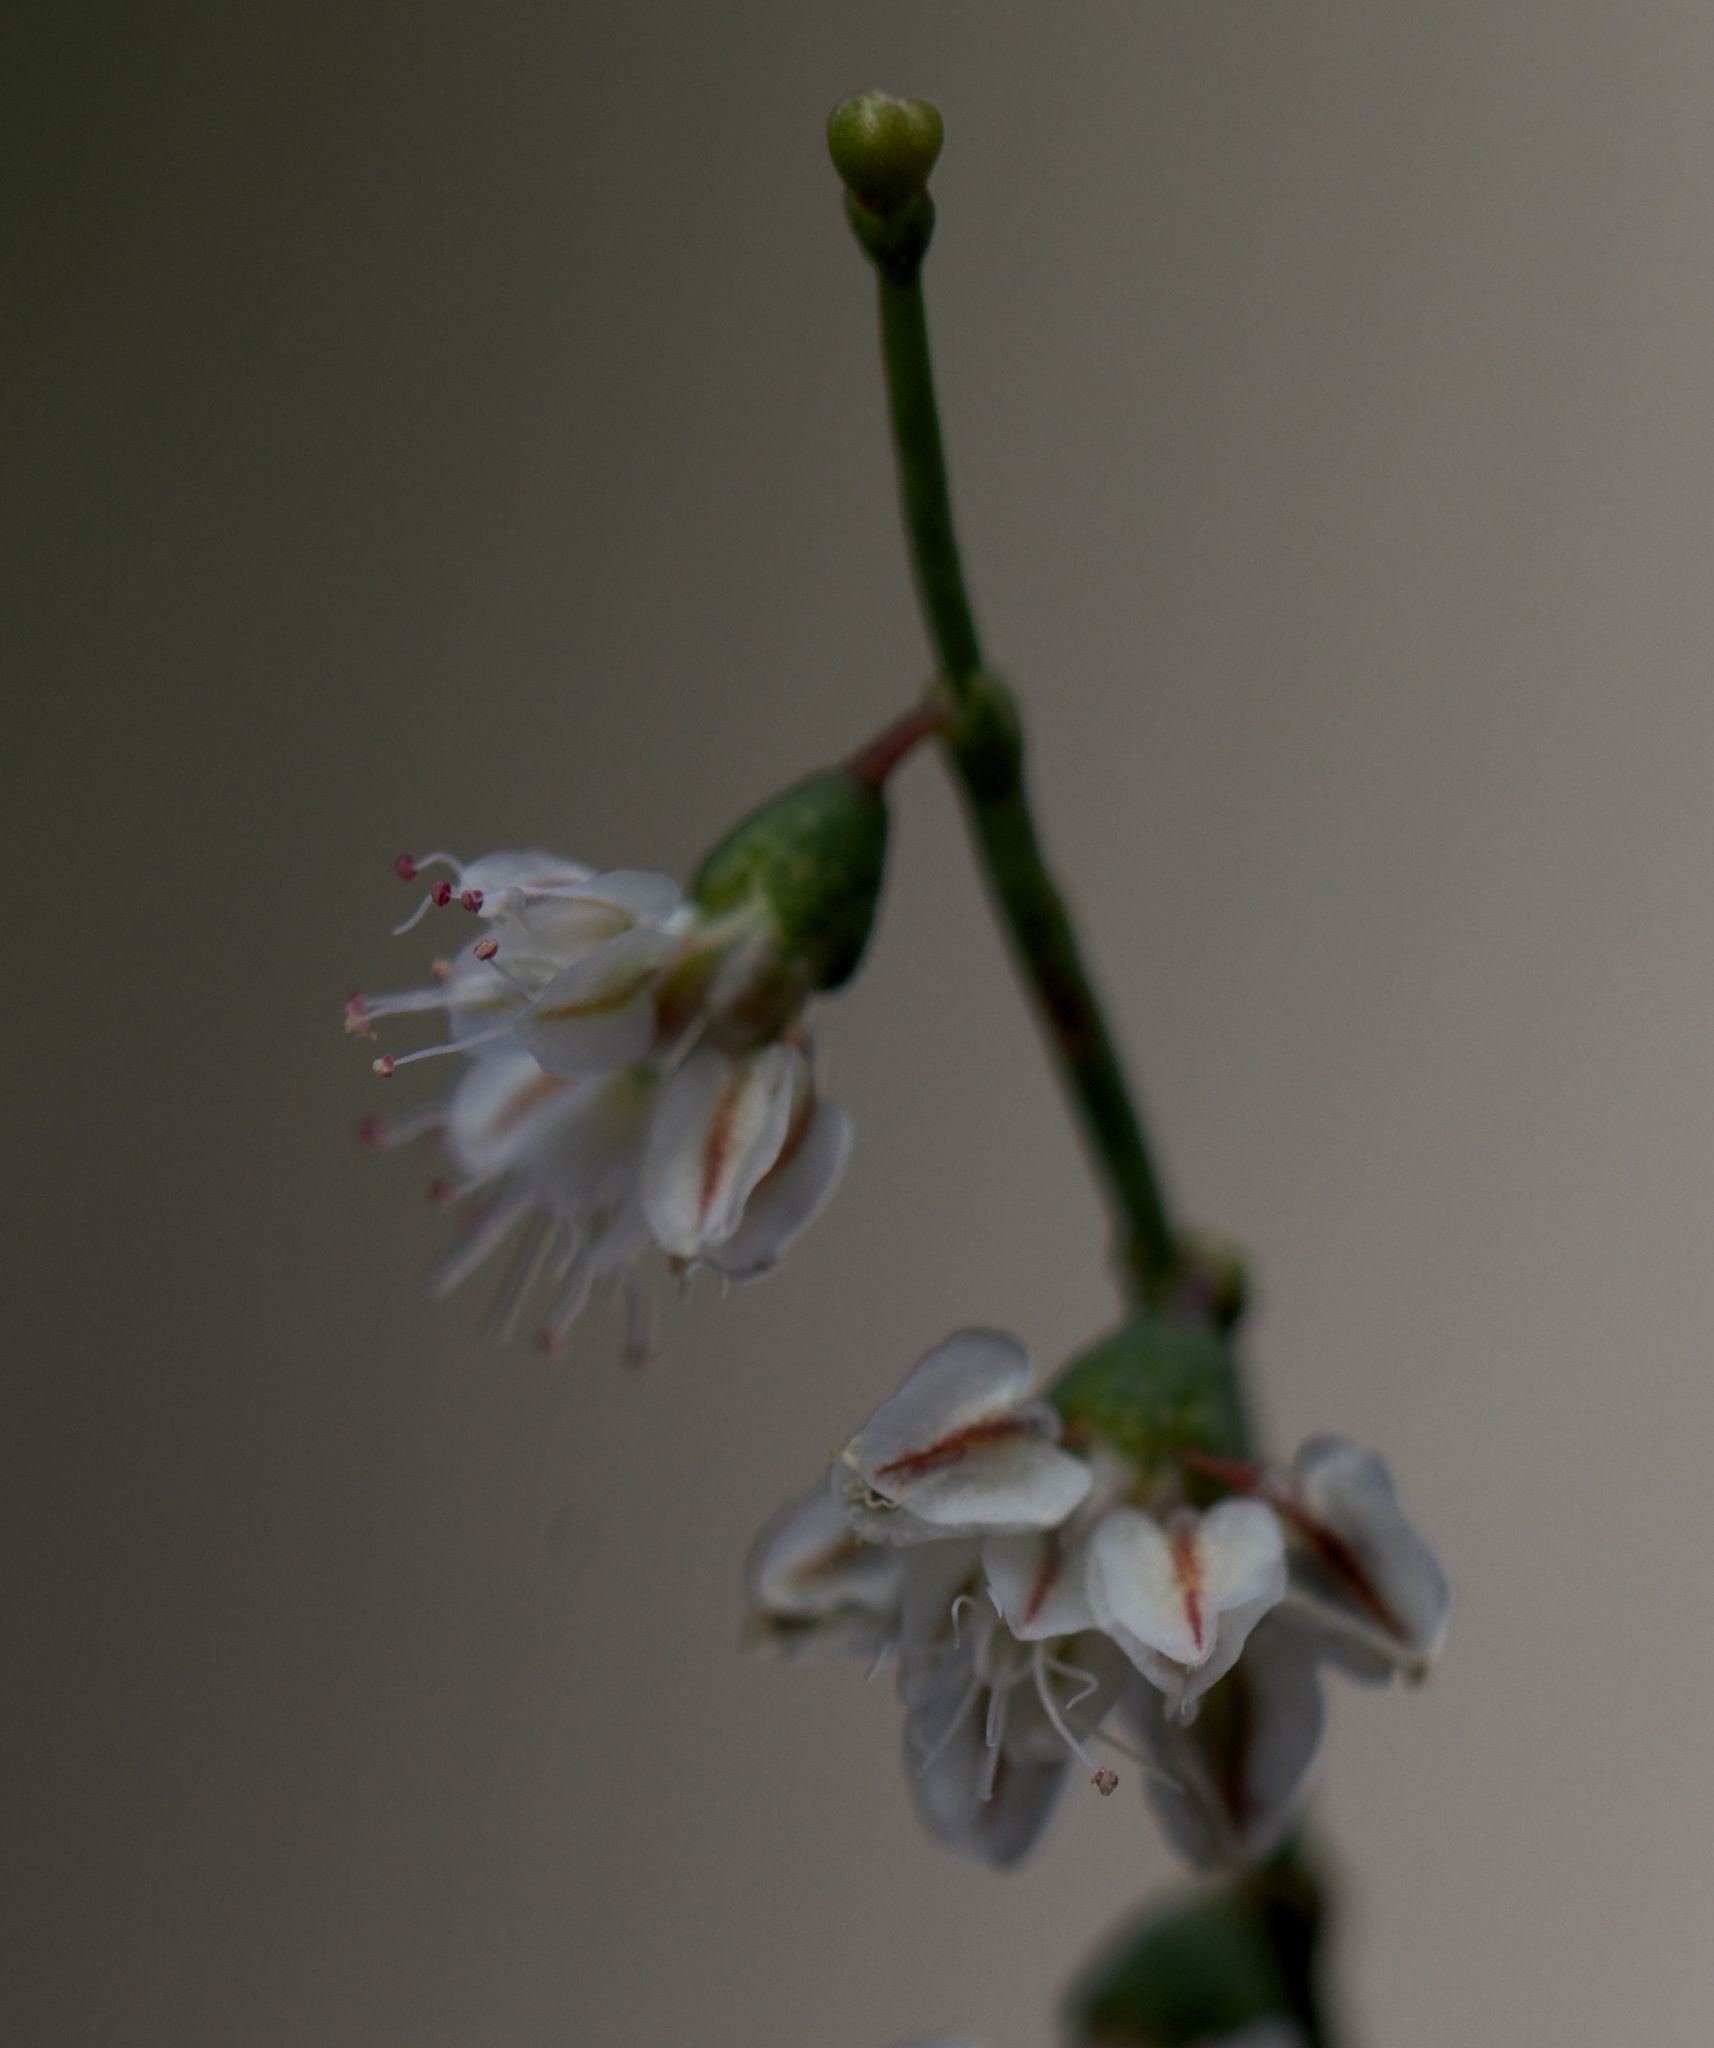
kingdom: Plantae
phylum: Tracheophyta
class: Magnoliopsida
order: Caryophyllales
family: Polygonaceae
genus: Eriogonum
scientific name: Eriogonum deflexum
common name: Skeleton-weed
